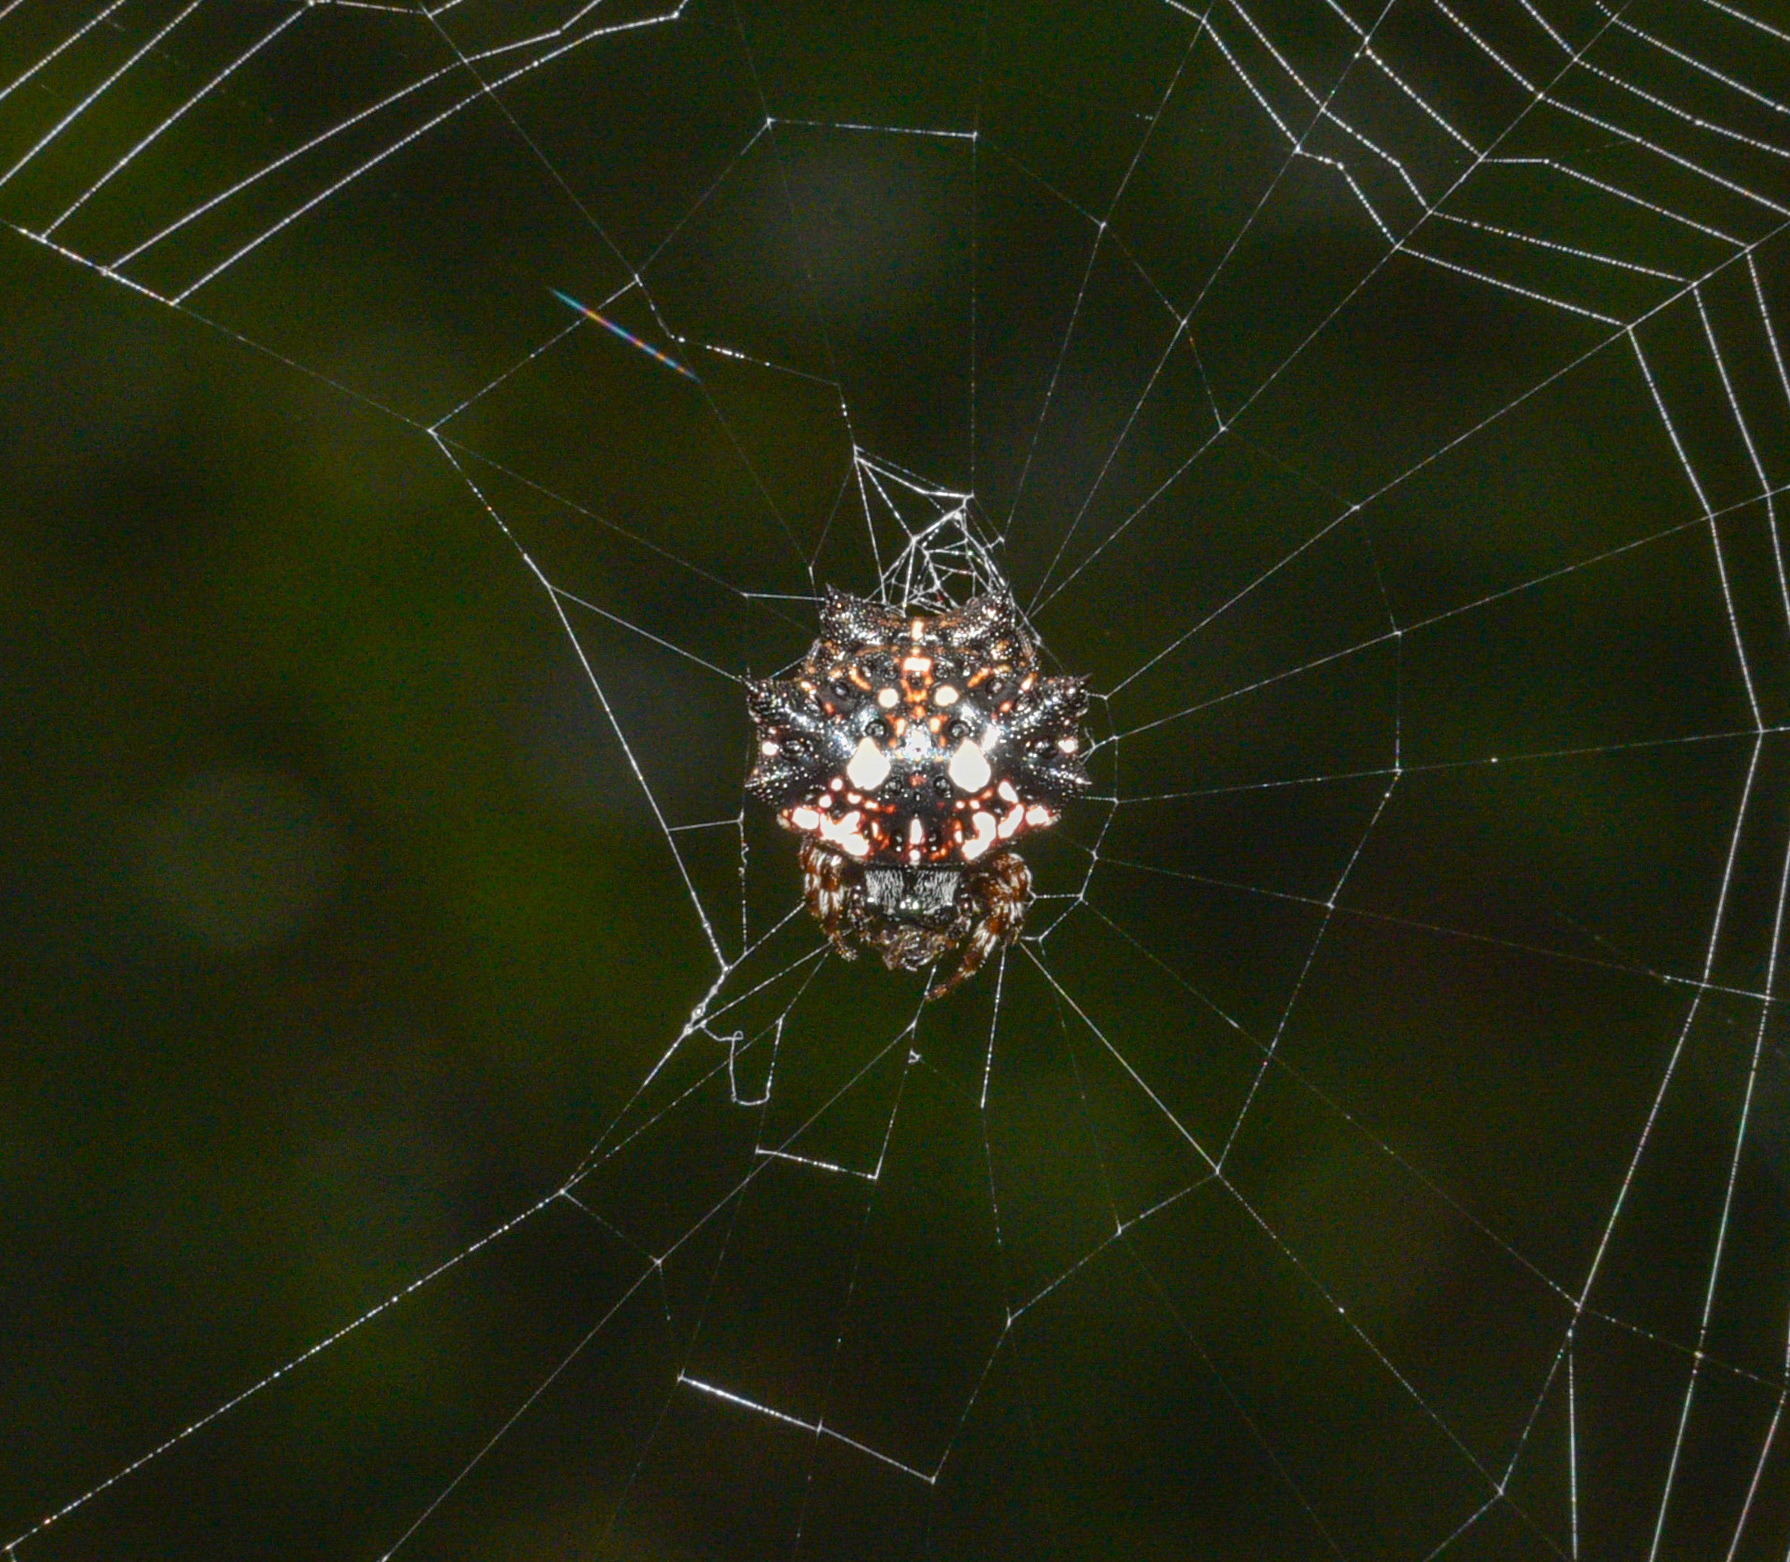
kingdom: Animalia
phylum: Arthropoda
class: Arachnida
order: Araneae
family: Araneidae
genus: Thelacantha
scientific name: Thelacantha brevispina
